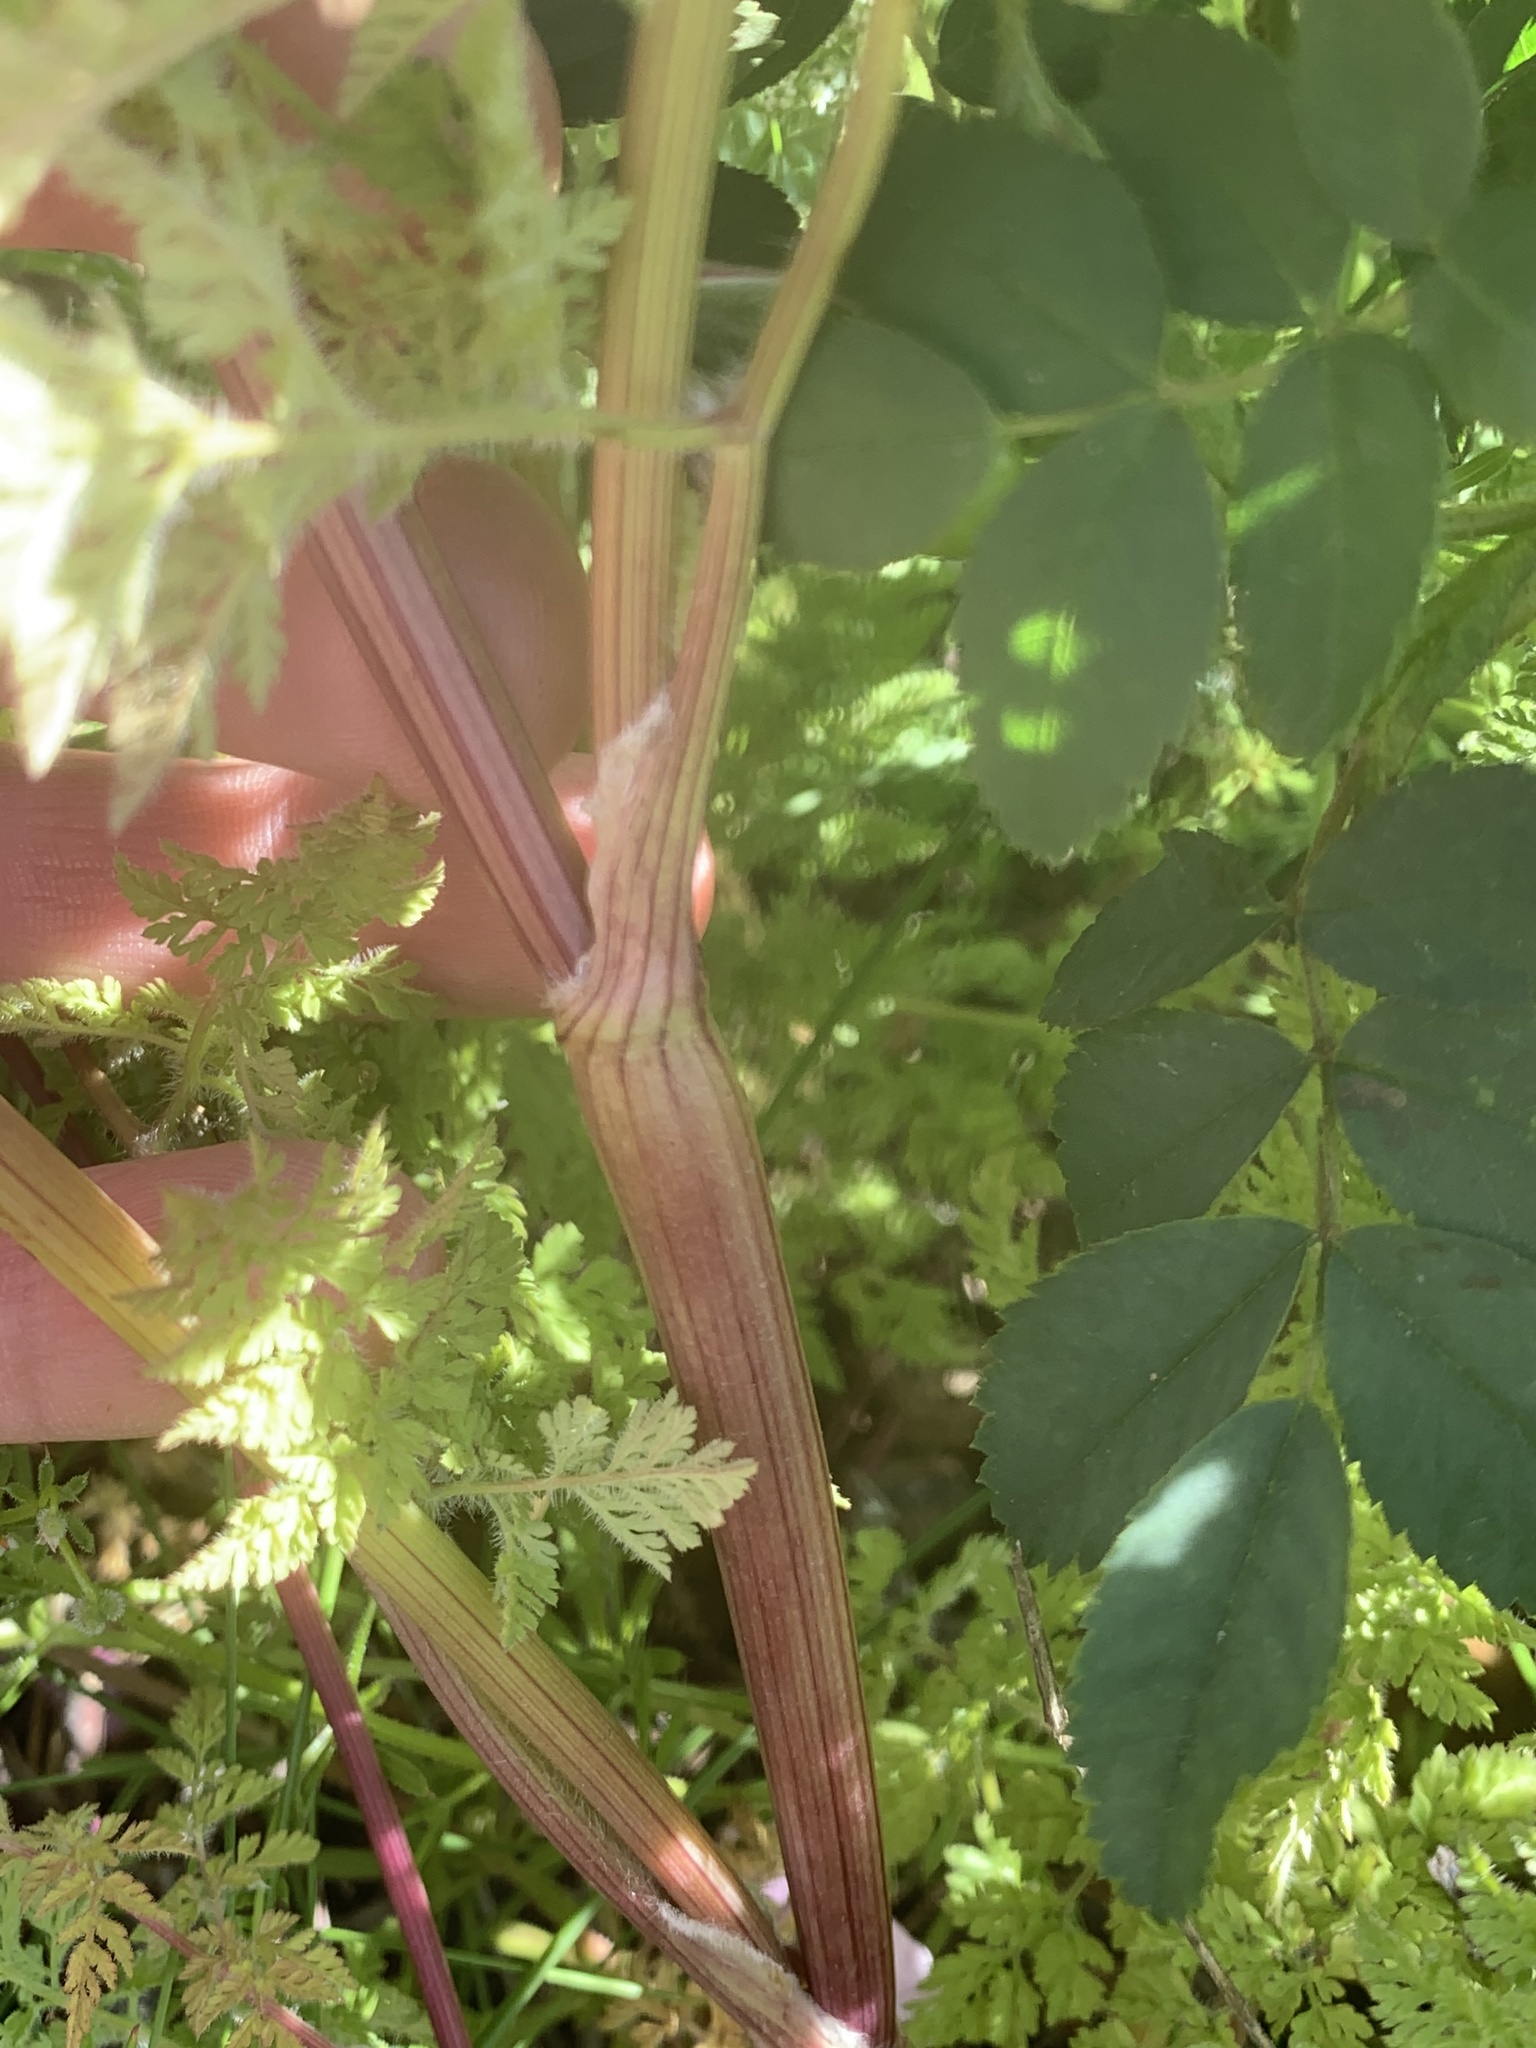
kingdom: Plantae
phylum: Tracheophyta
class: Magnoliopsida
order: Apiales
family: Apiaceae
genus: Anthriscus
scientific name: Anthriscus caucalis
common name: Bur chervil
